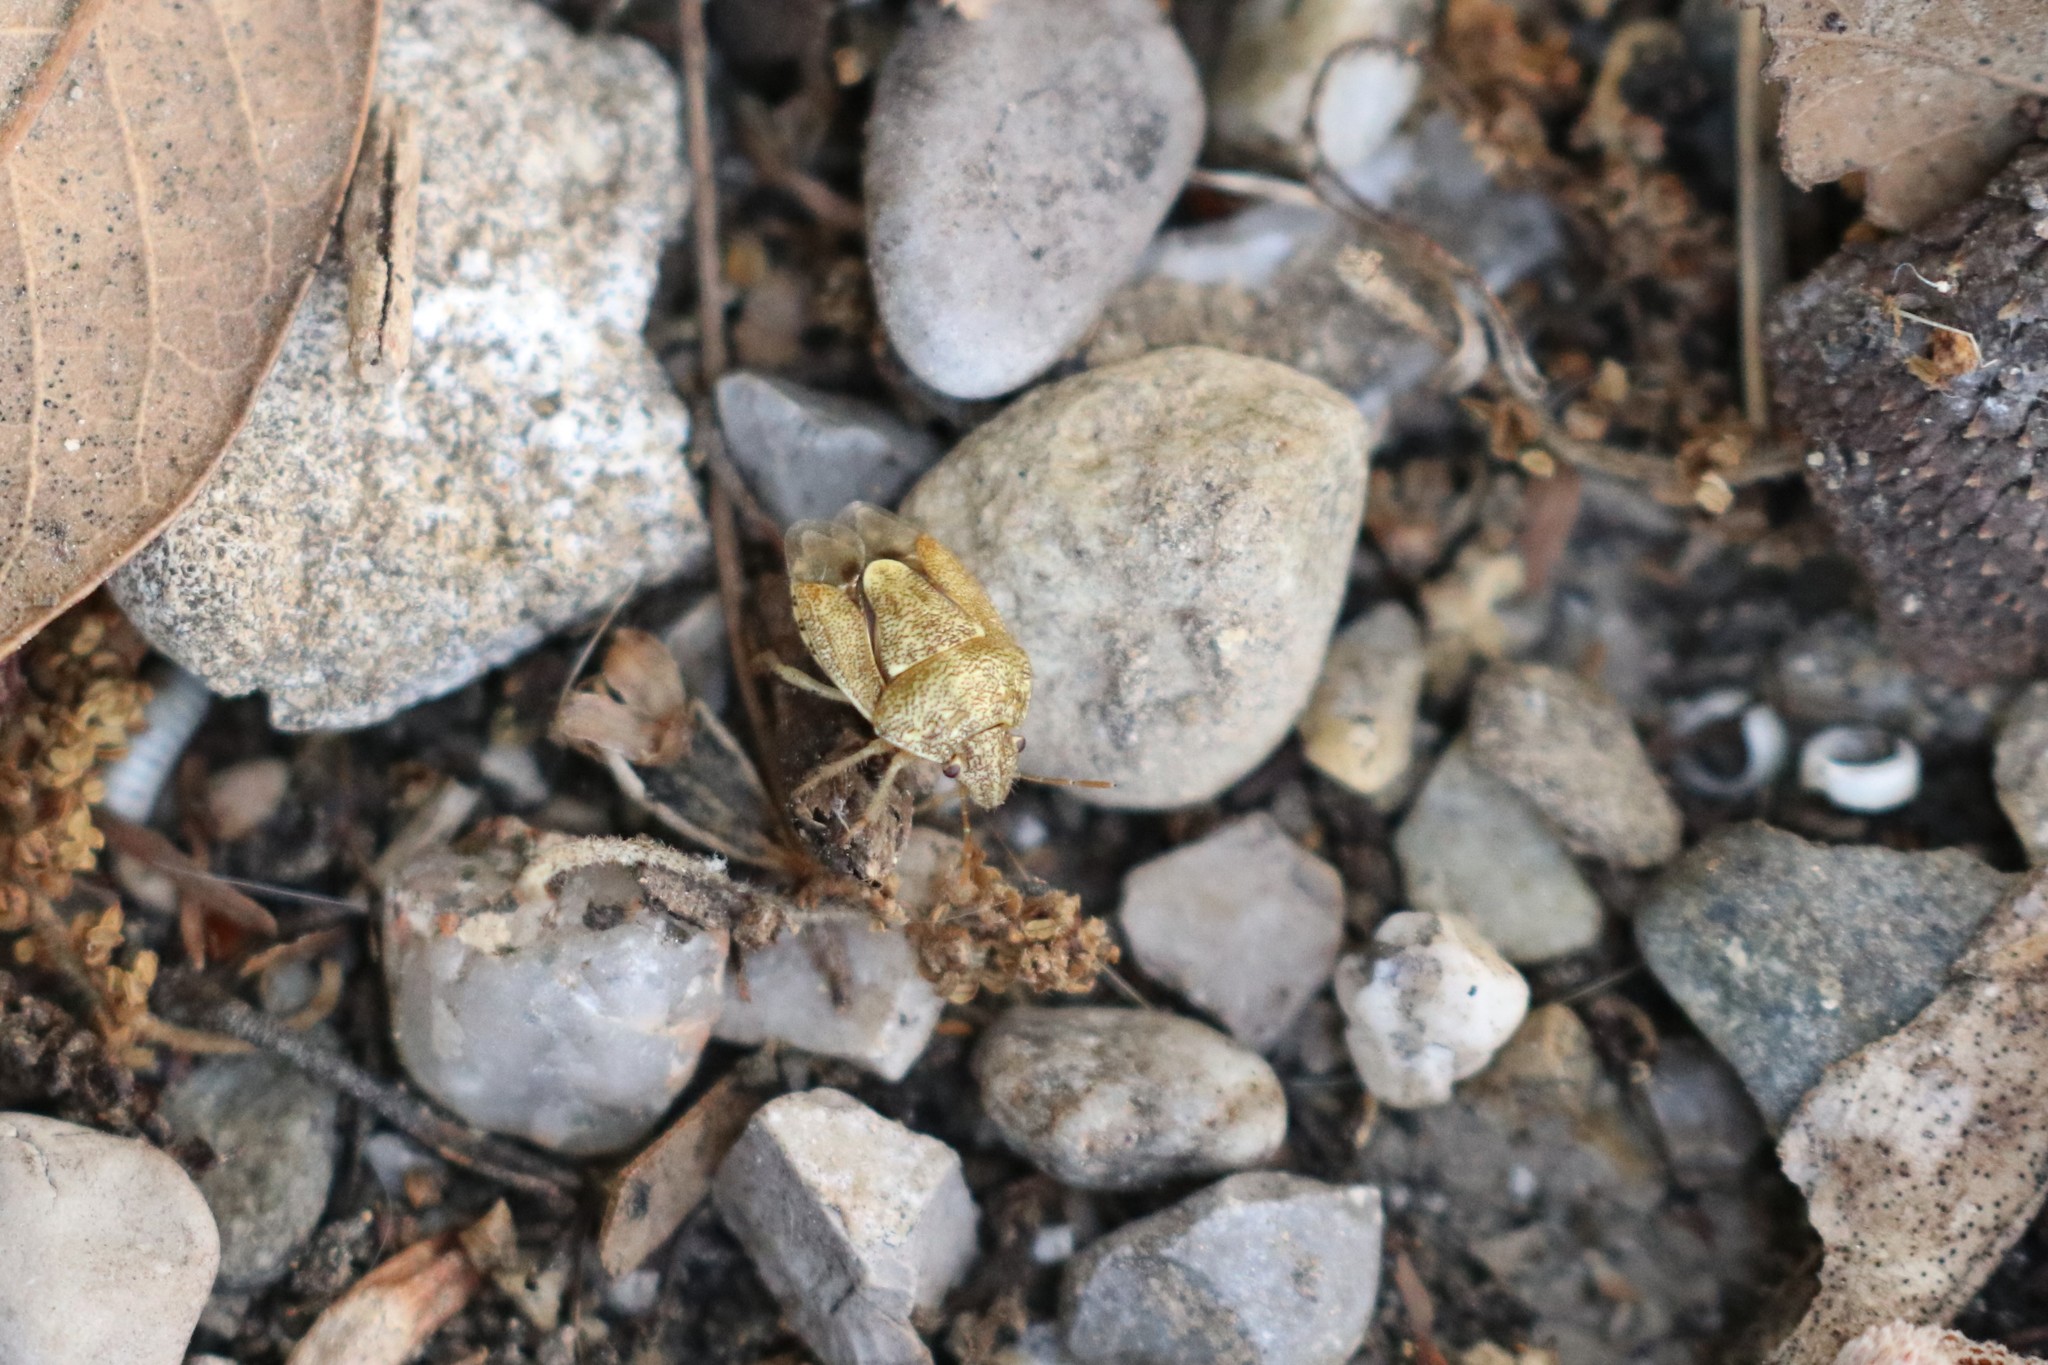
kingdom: Animalia
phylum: Arthropoda
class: Insecta
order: Hemiptera
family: Pentatomidae
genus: Staria
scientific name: Staria lunata
